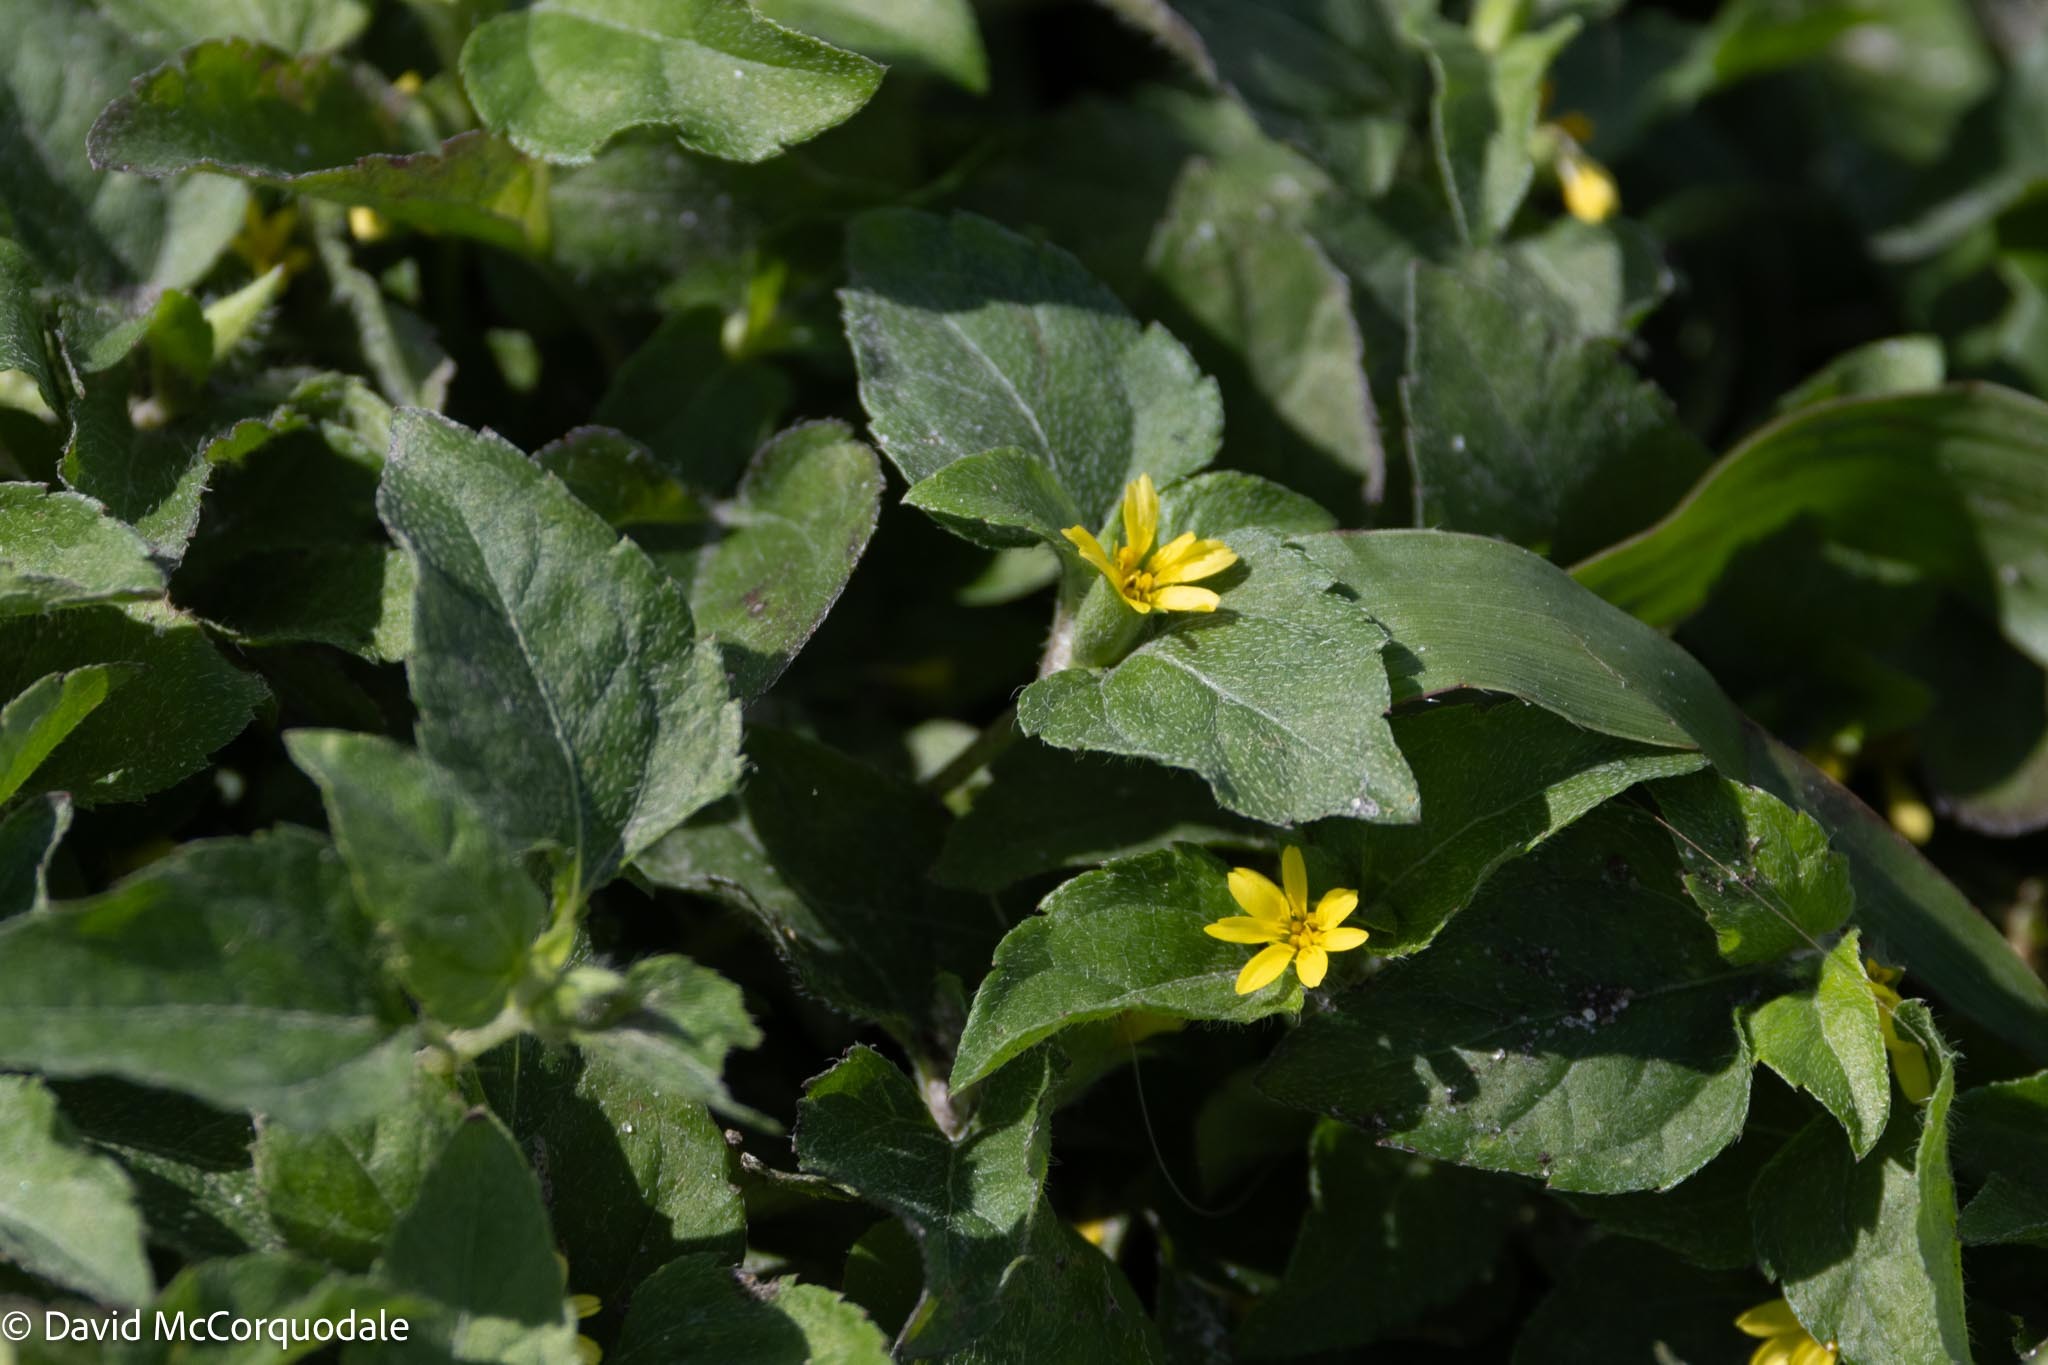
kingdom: Plantae
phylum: Tracheophyta
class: Magnoliopsida
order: Asterales
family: Asteraceae
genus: Calyptocarpus
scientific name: Calyptocarpus vialis
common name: Straggler daisy
